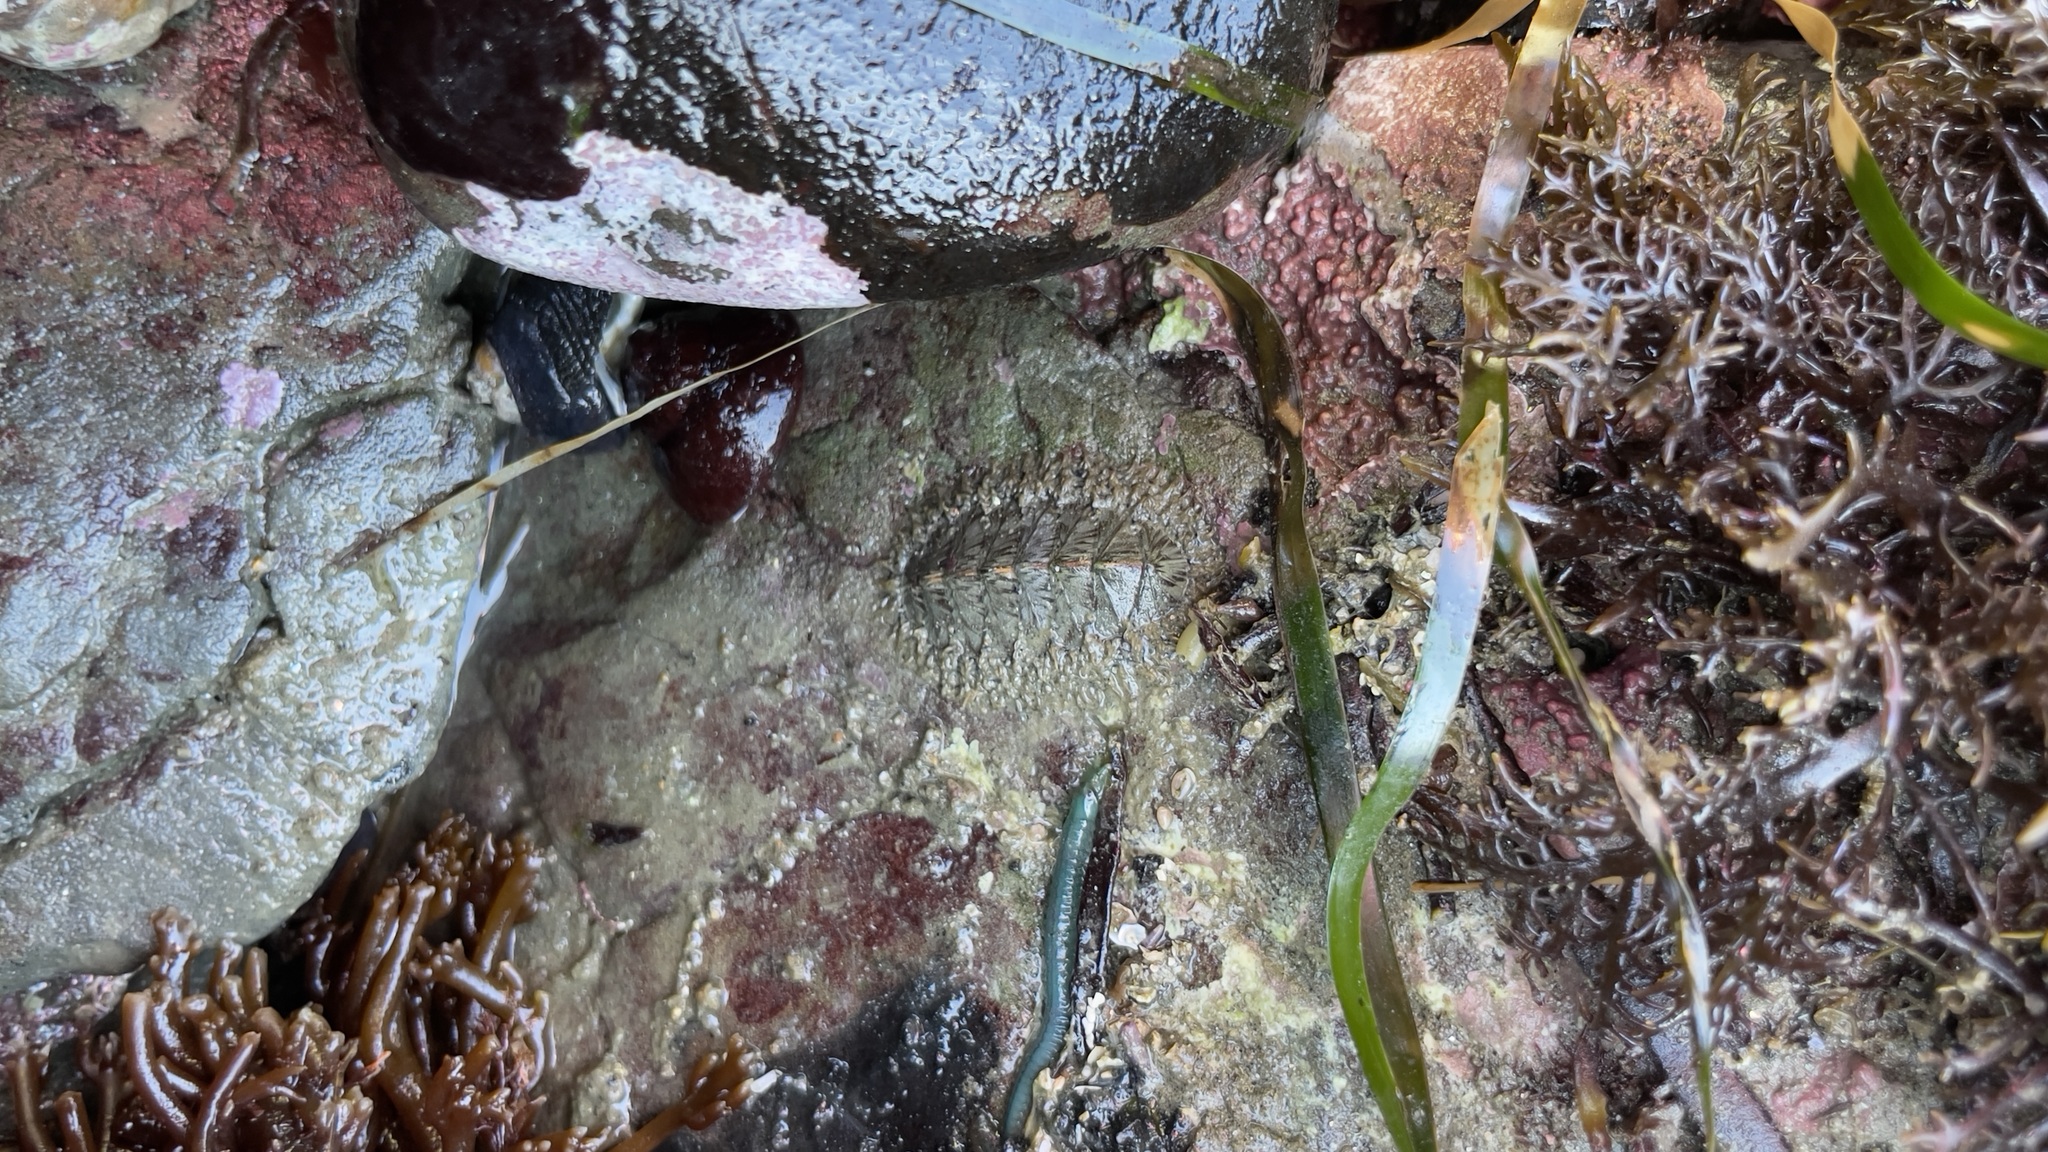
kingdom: Animalia
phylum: Mollusca
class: Polyplacophora
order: Chitonida
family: Mopaliidae
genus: Mopalia
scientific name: Mopalia lignosa
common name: Woody chiton
